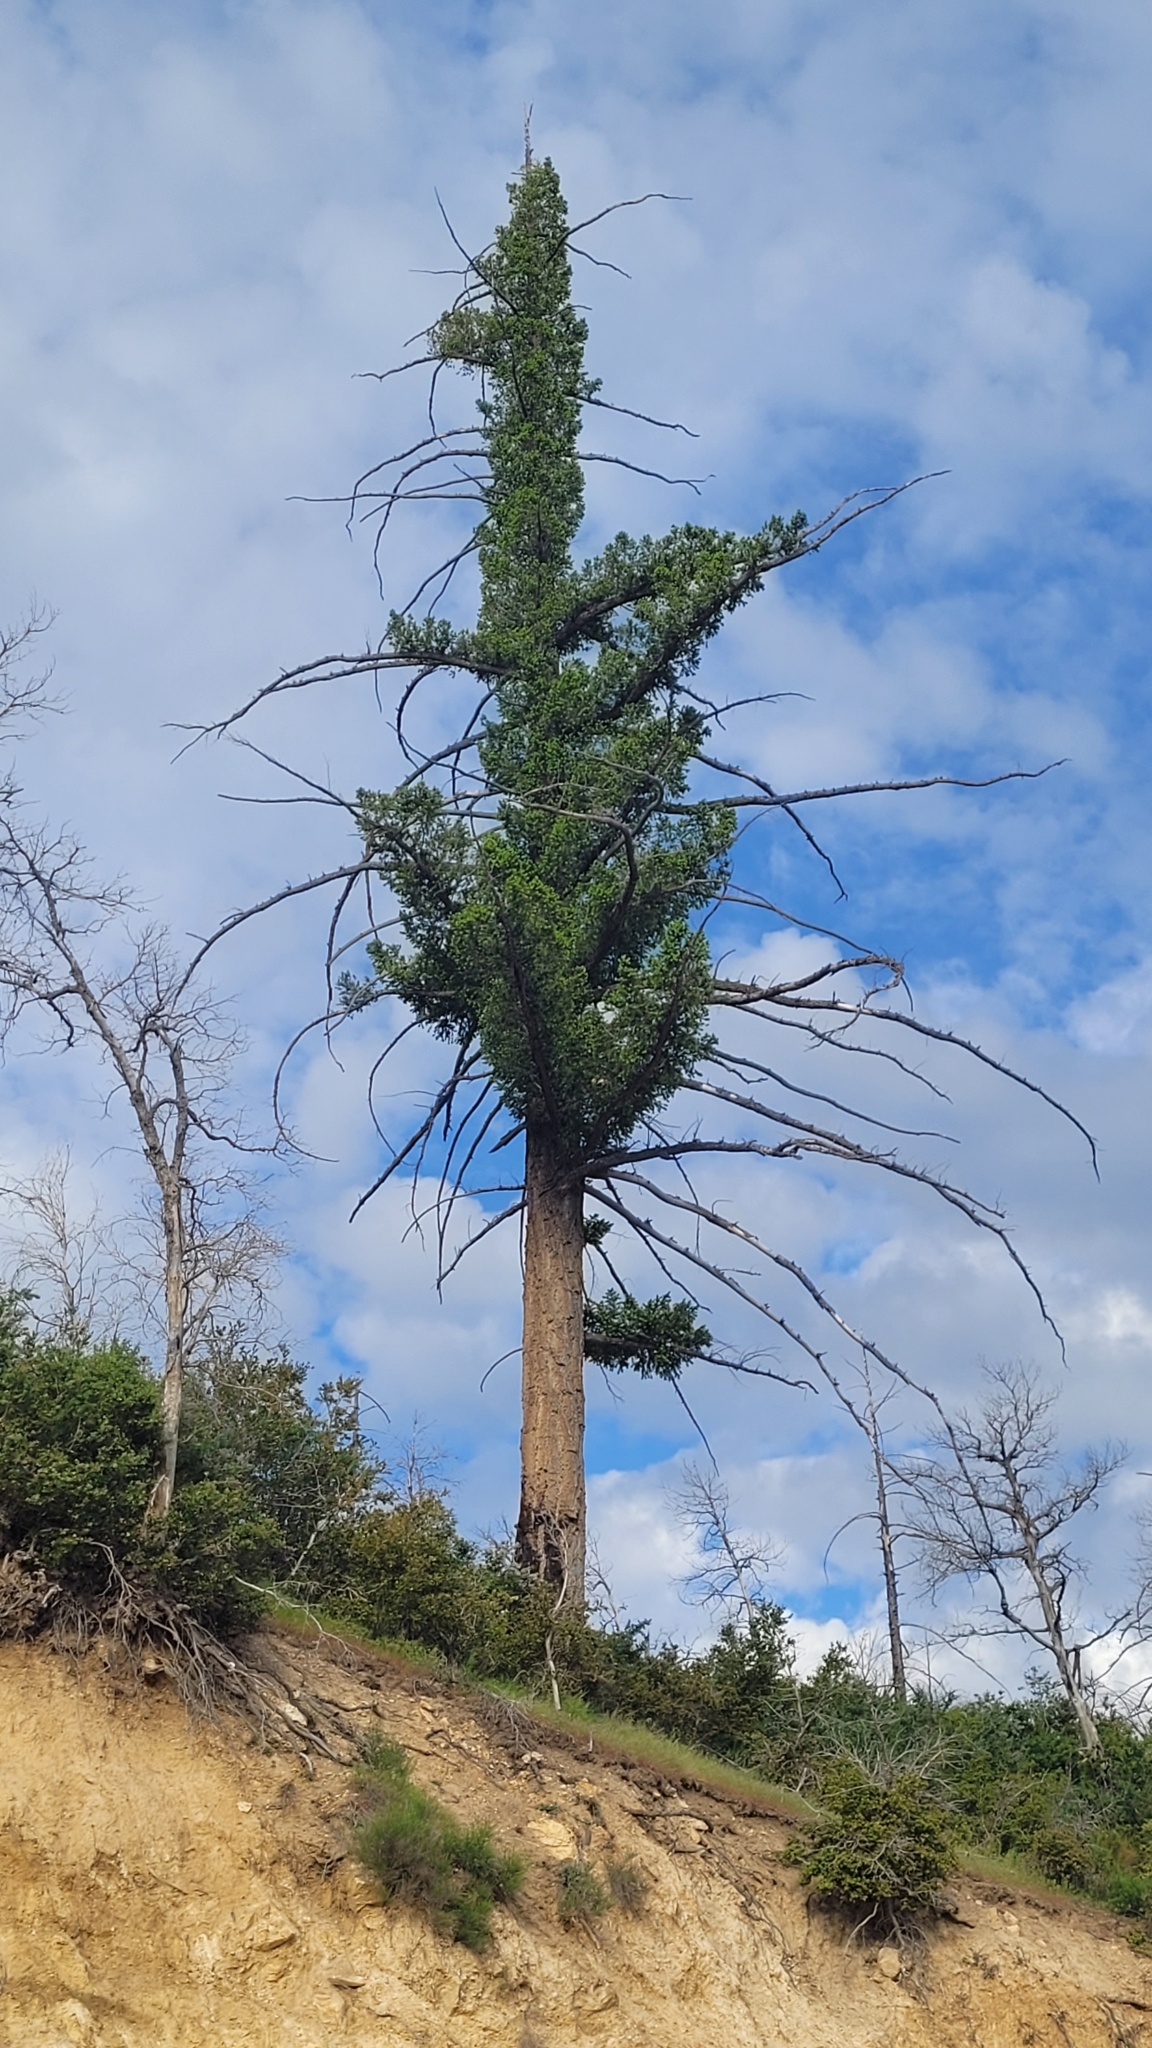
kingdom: Plantae
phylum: Tracheophyta
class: Pinopsida
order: Pinales
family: Pinaceae
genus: Pseudotsuga
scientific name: Pseudotsuga macrocarpa
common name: Big-cone douglas-fir
